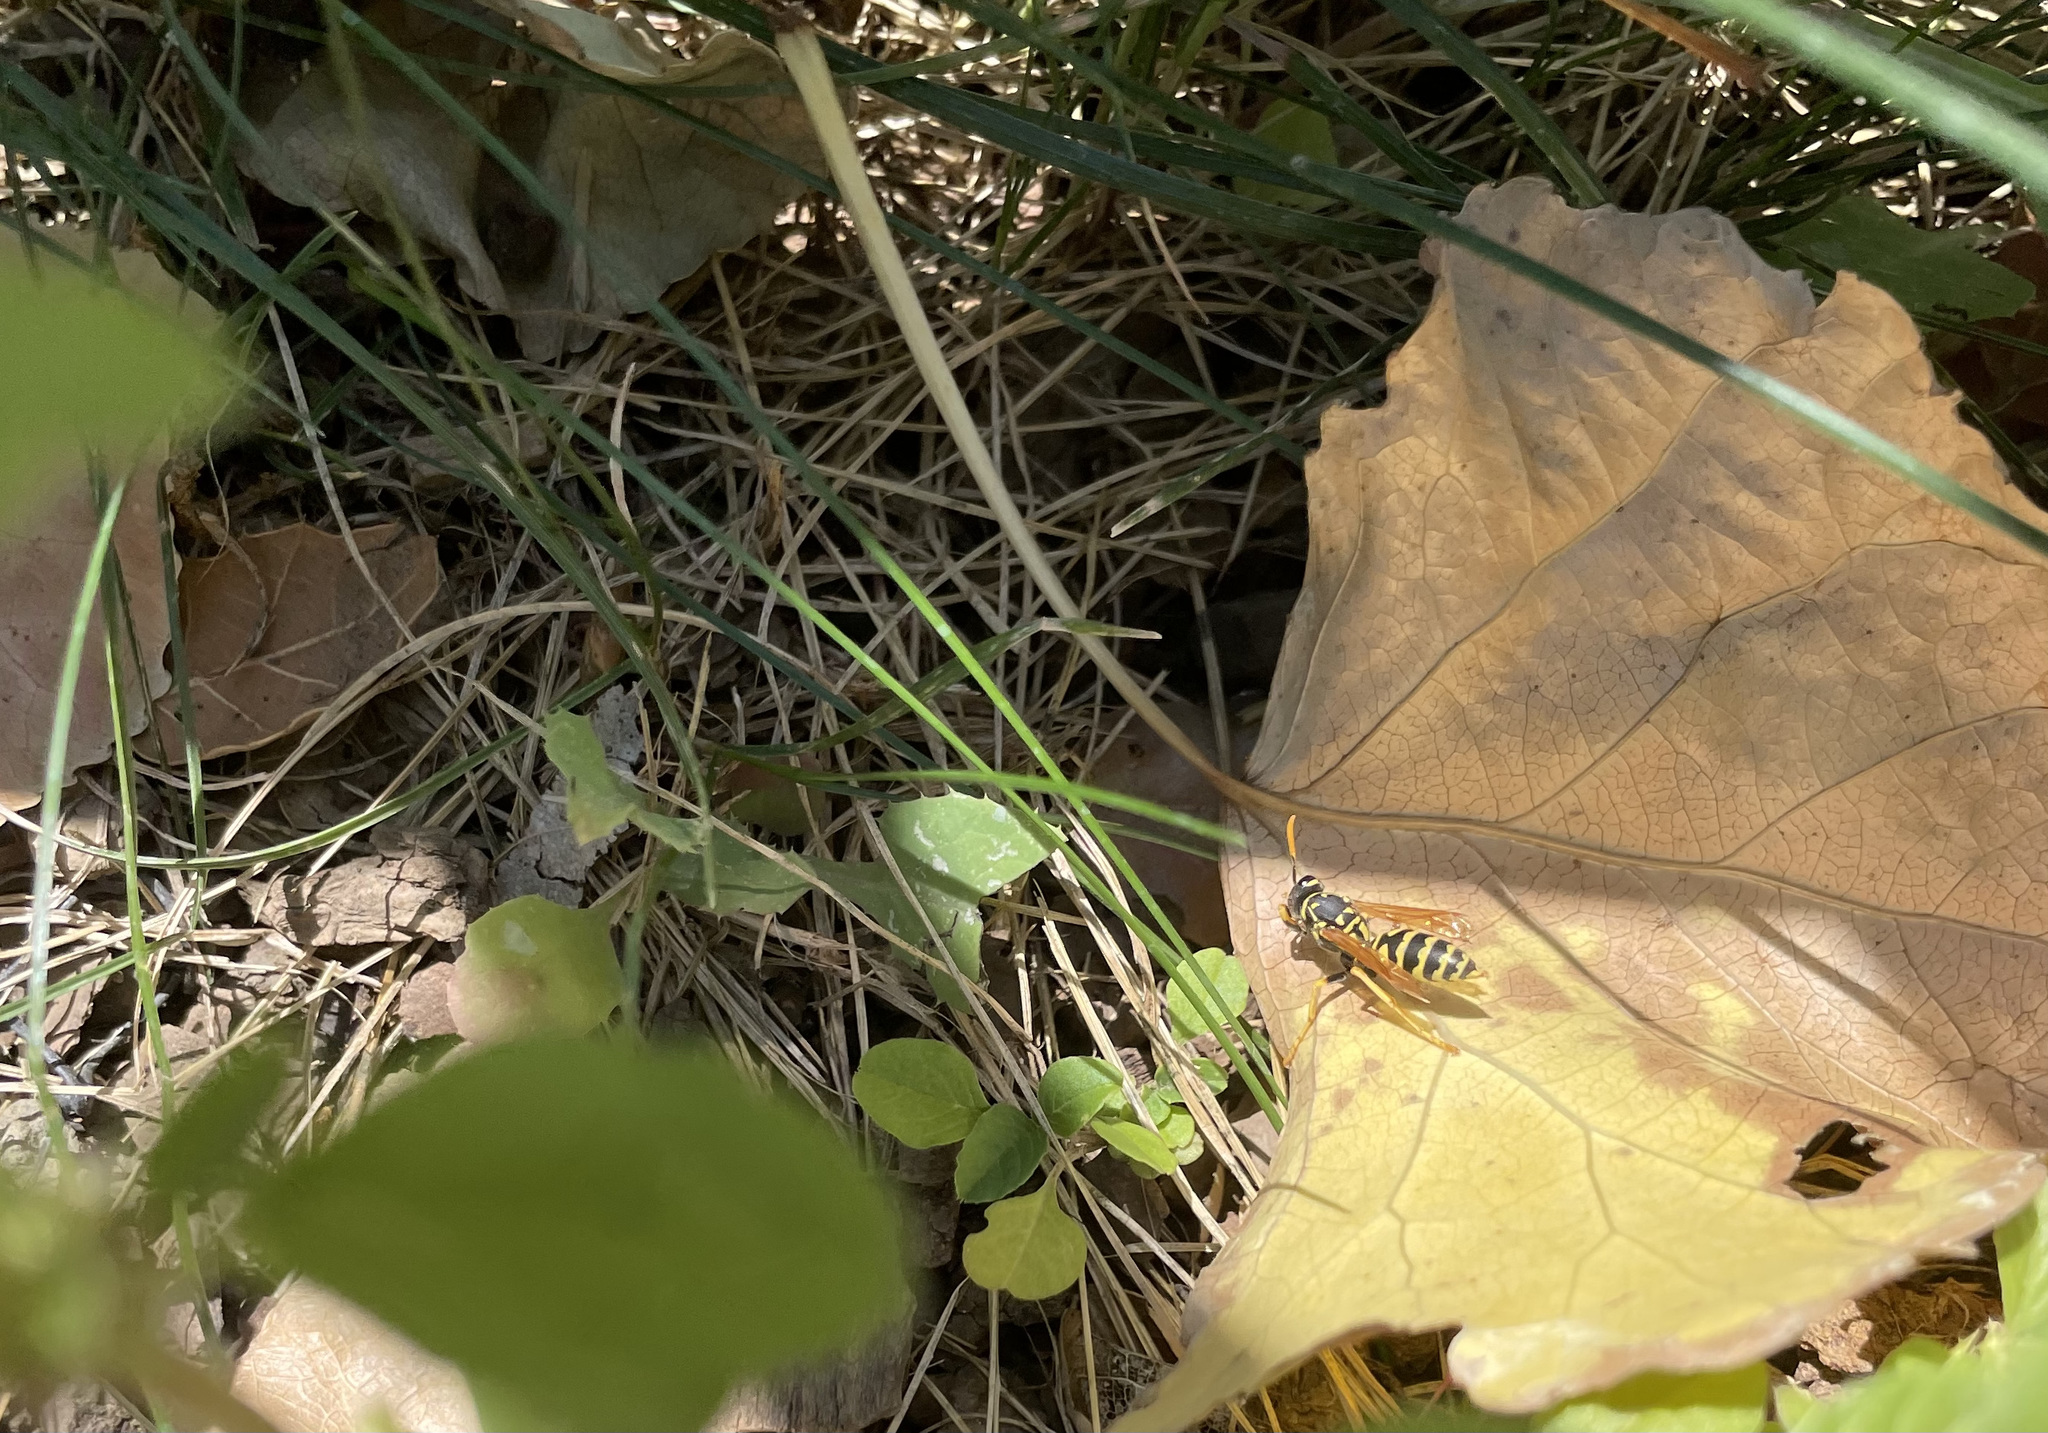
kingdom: Animalia
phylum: Arthropoda
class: Insecta
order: Hymenoptera
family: Eumenidae
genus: Polistes
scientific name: Polistes dominula
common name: Paper wasp
